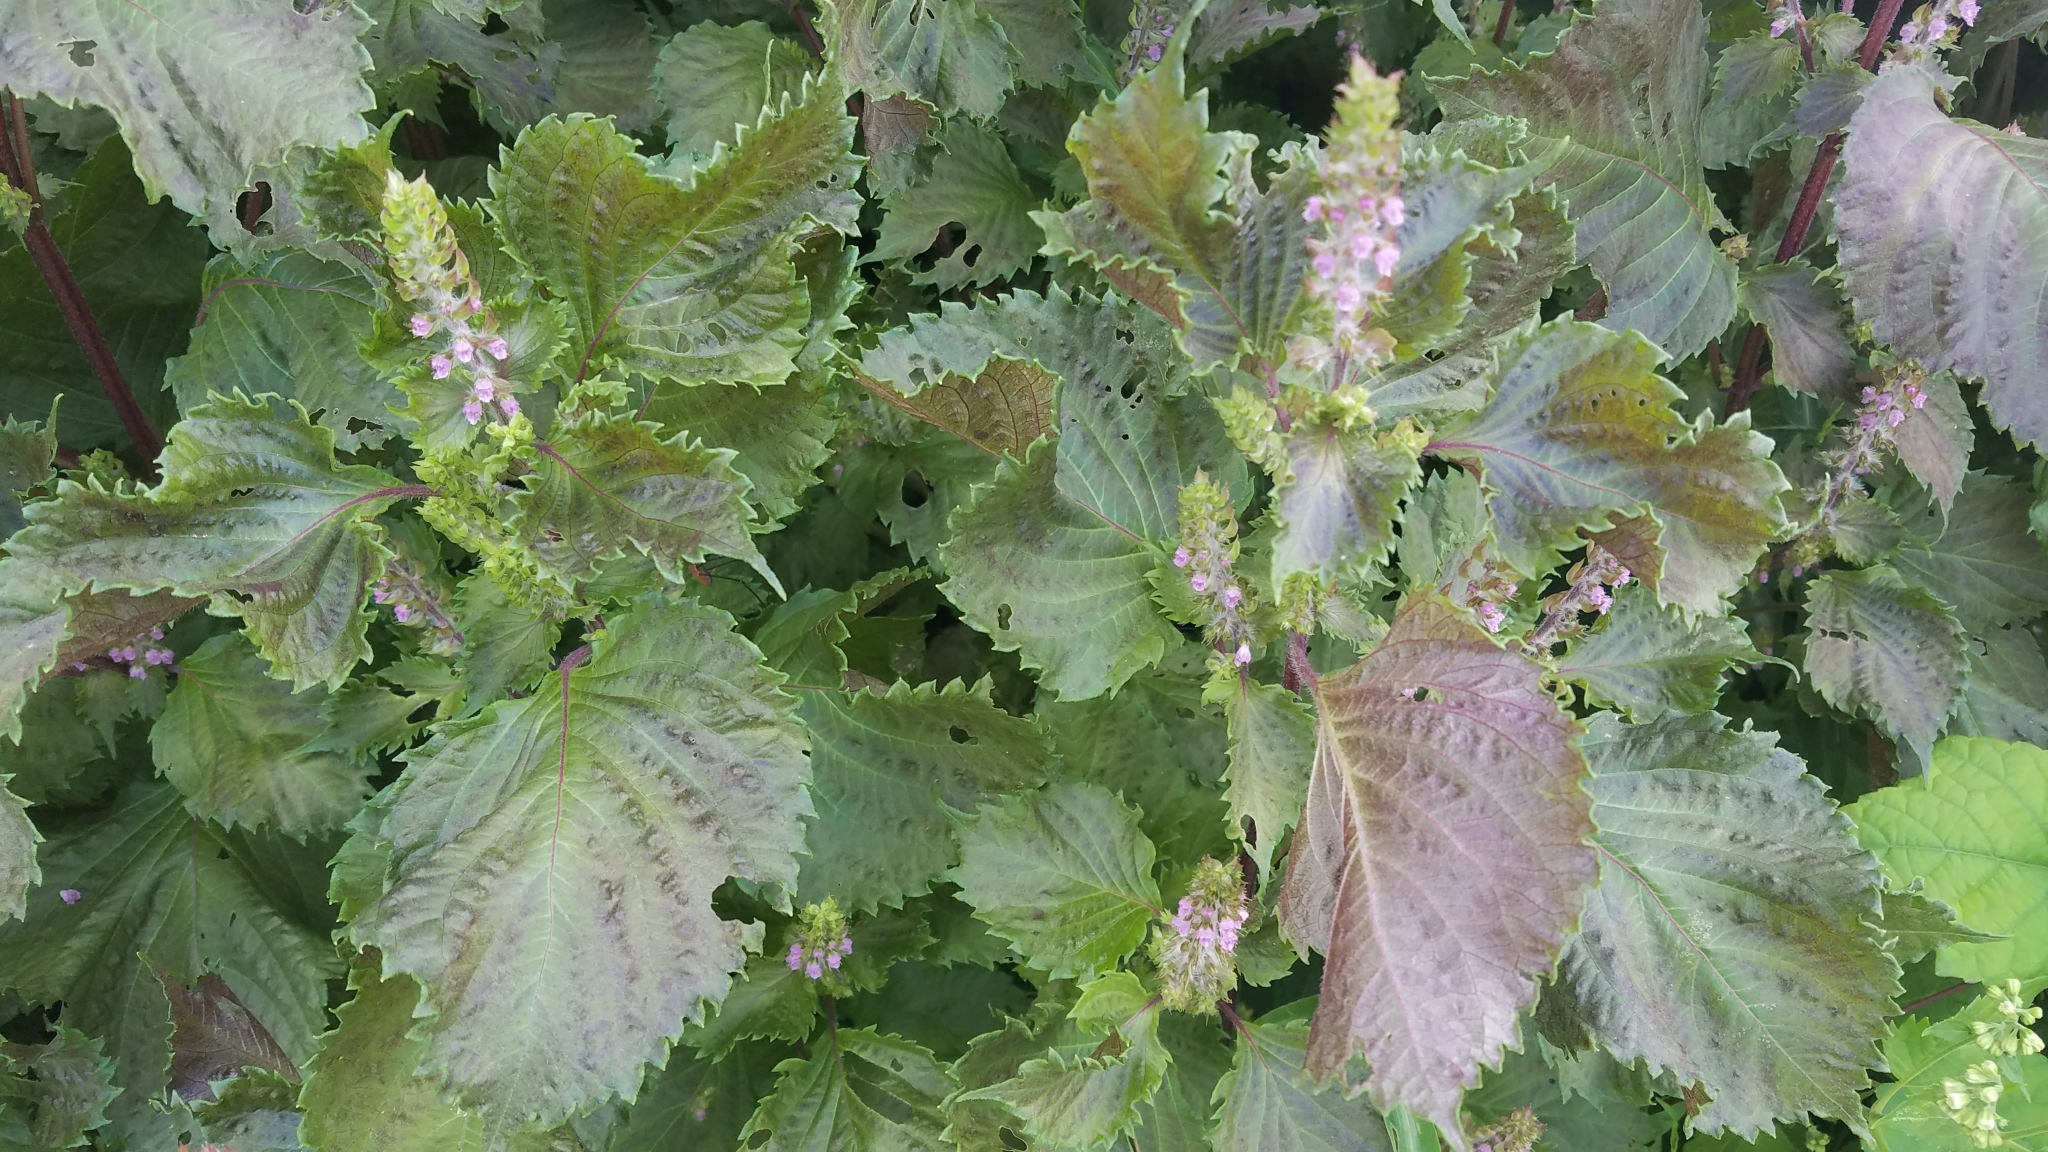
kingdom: Plantae
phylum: Tracheophyta
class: Magnoliopsida
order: Lamiales
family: Lamiaceae
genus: Perilla
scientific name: Perilla frutescens
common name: Perilla
